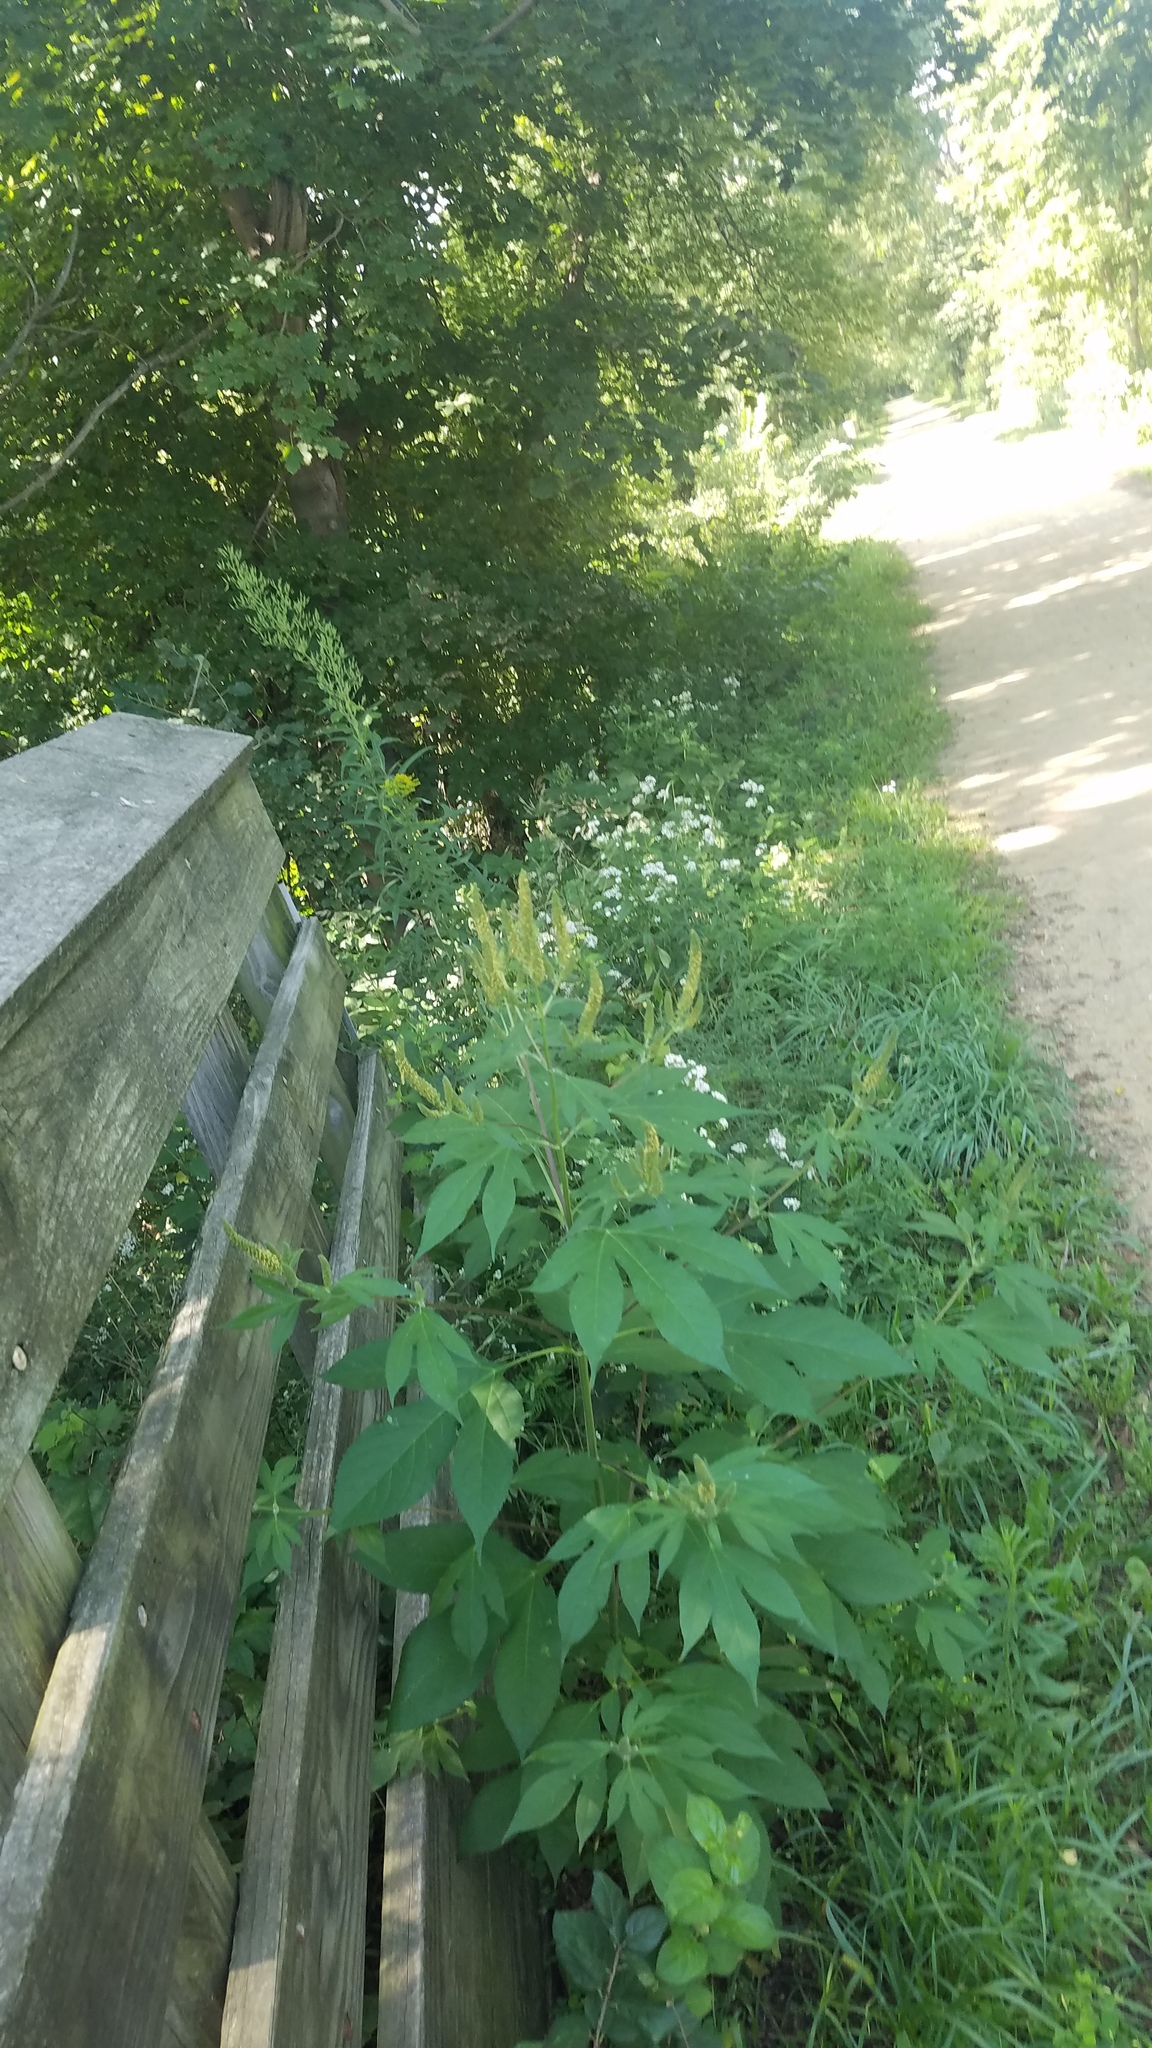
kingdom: Plantae
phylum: Tracheophyta
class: Magnoliopsida
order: Asterales
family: Asteraceae
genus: Ambrosia
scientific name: Ambrosia trifida
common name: Giant ragweed
